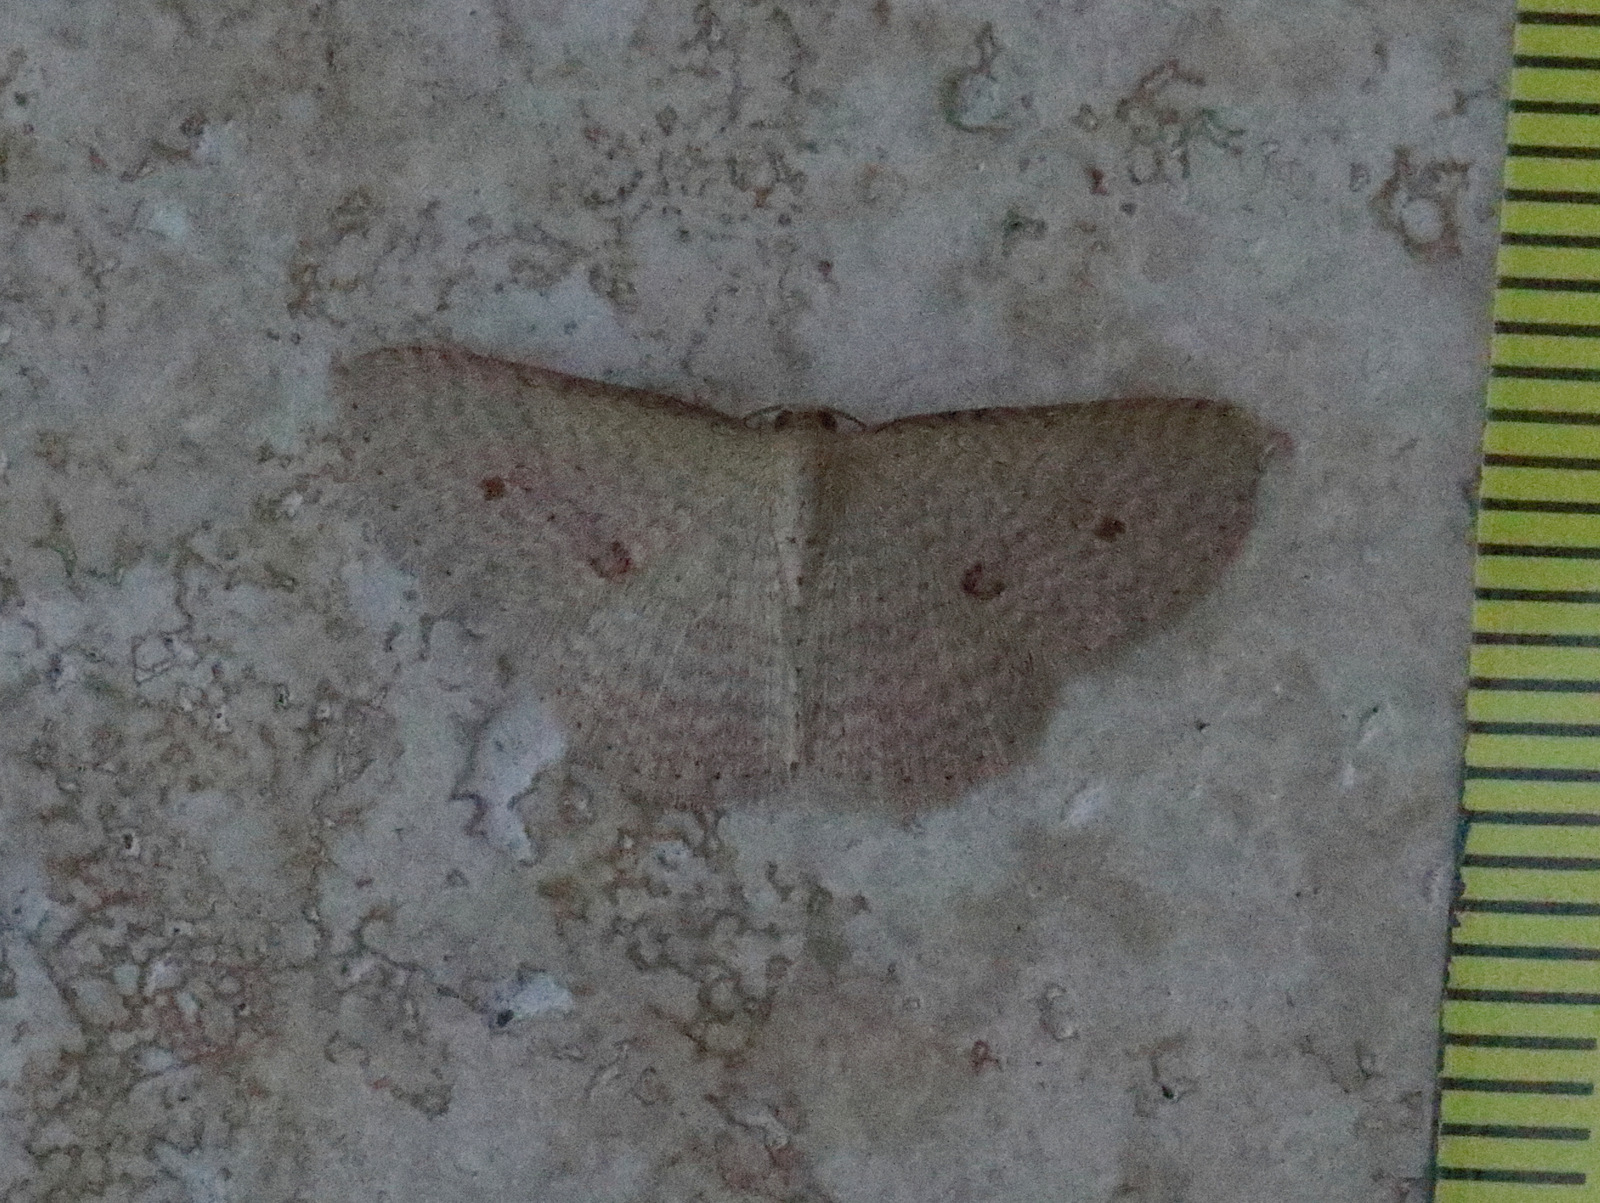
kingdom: Animalia
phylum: Arthropoda
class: Insecta
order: Lepidoptera
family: Geometridae
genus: Epicyme
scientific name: Epicyme rubropunctaria
